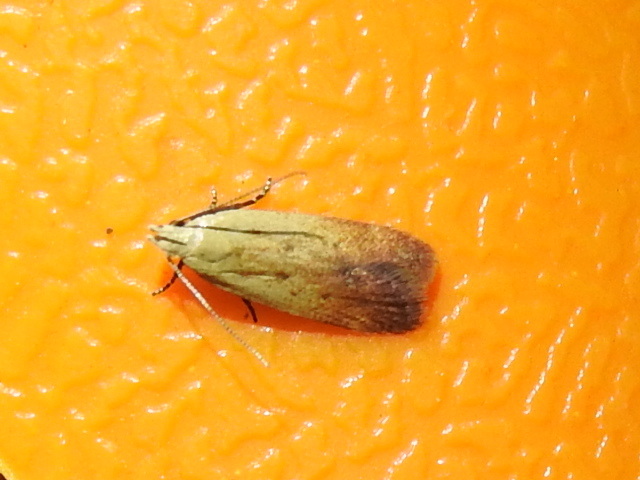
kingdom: Animalia
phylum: Arthropoda
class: Insecta
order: Lepidoptera
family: Gelechiidae
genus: Anacampsis
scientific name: Anacampsis fullonella
